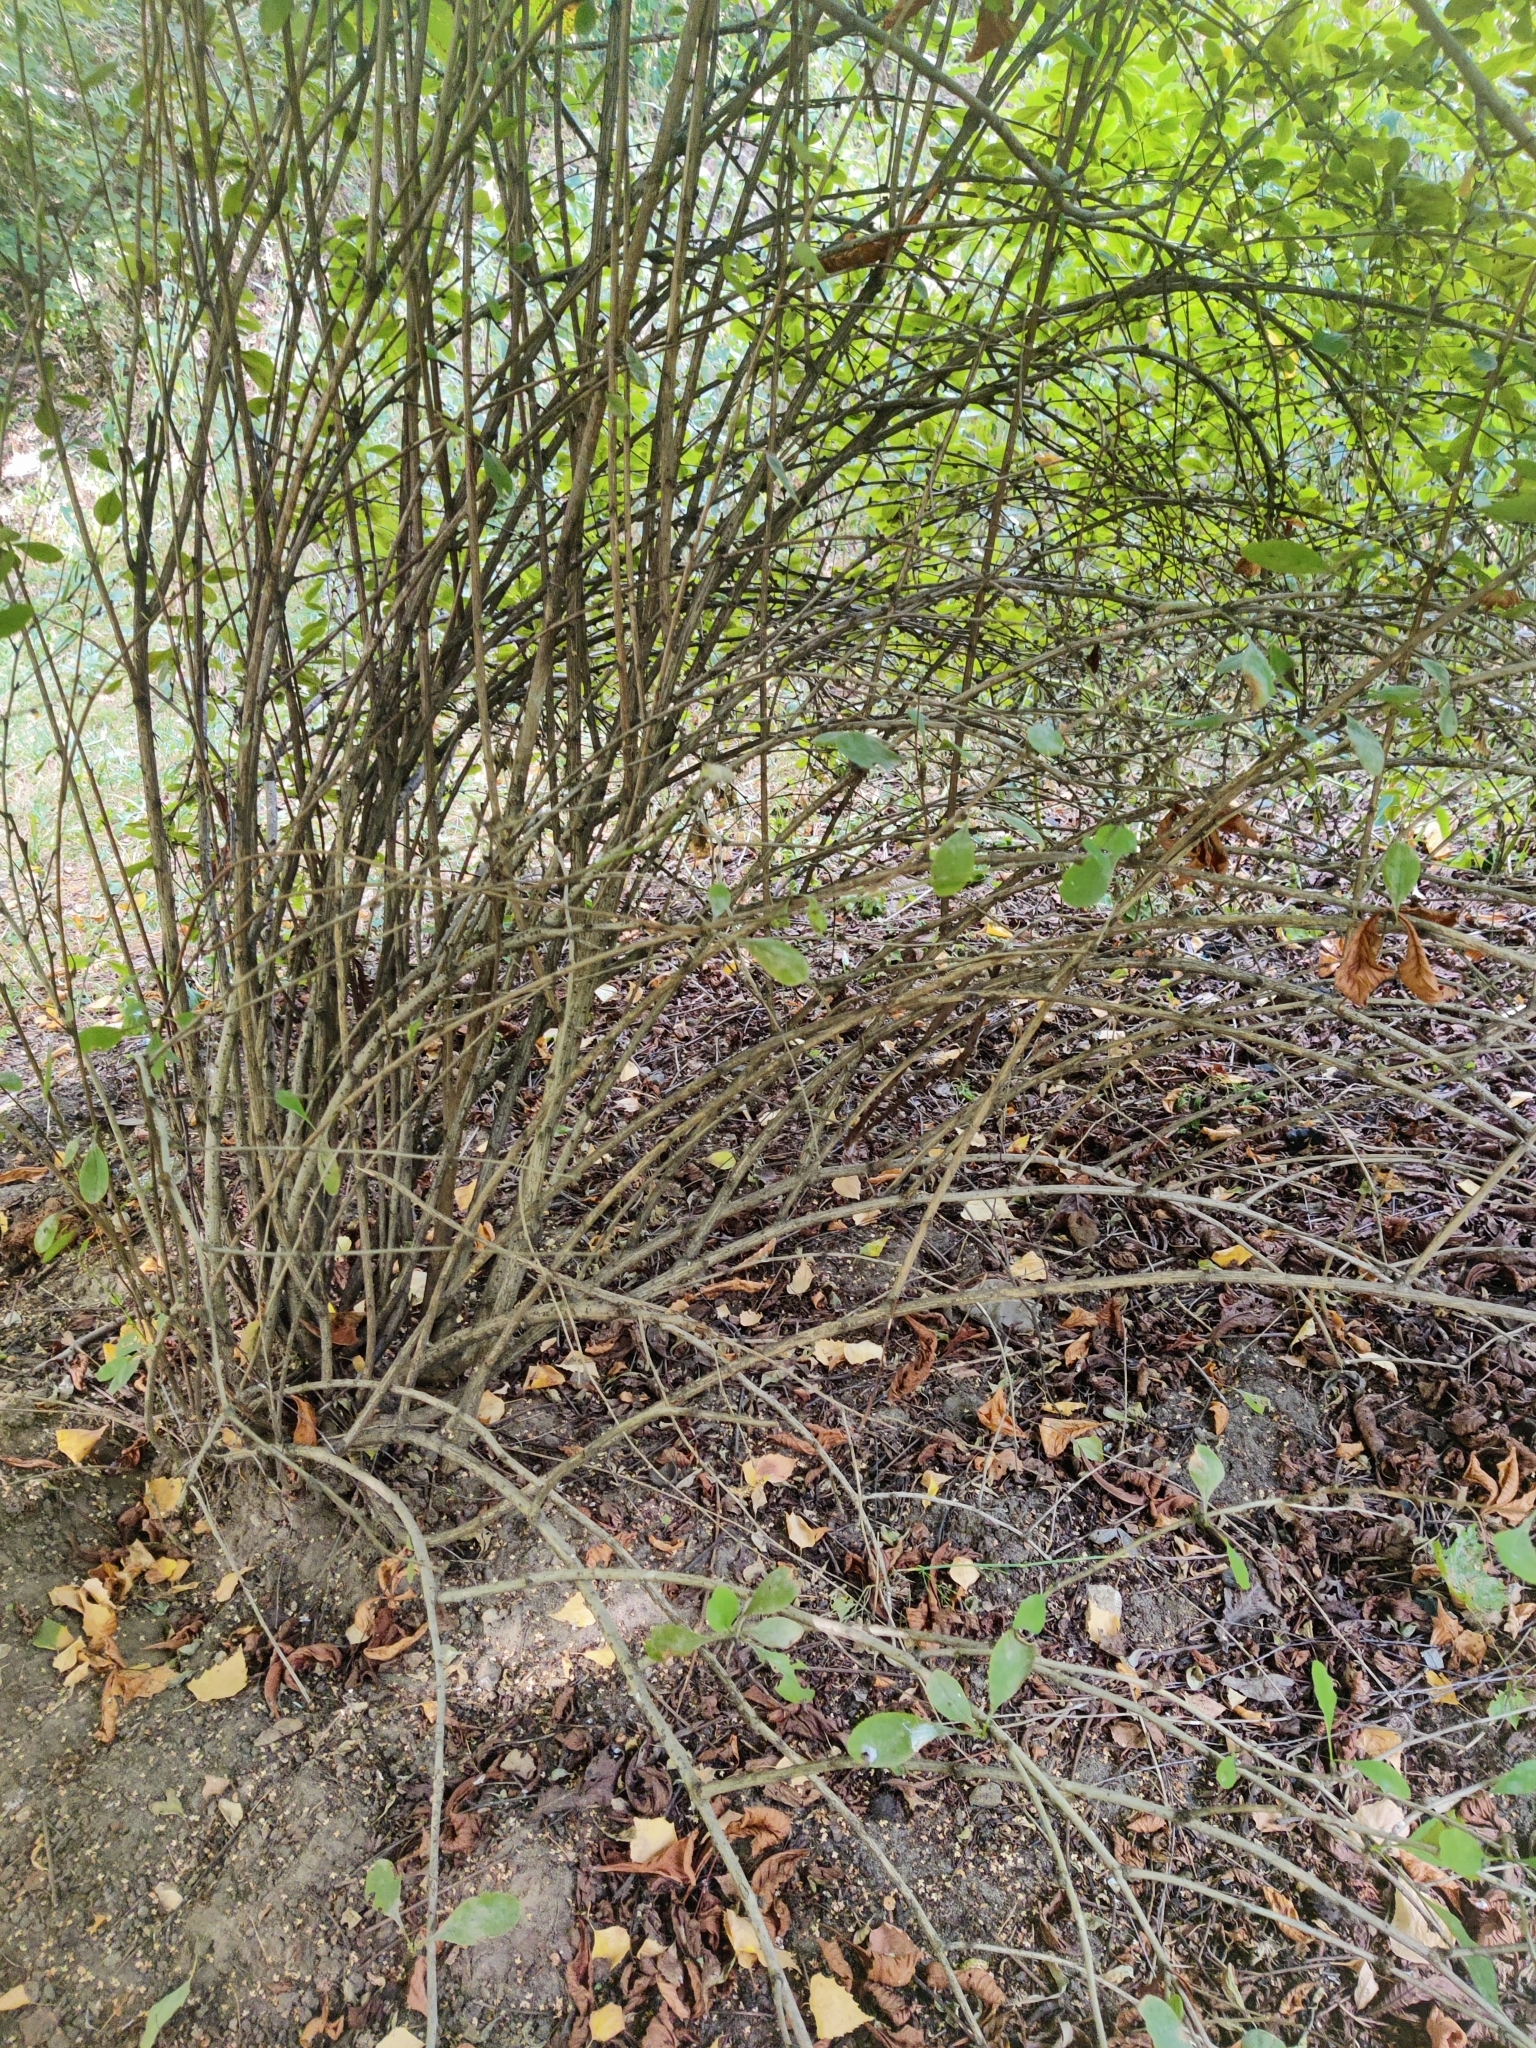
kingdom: Plantae
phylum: Tracheophyta
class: Magnoliopsida
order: Ranunculales
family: Berberidaceae
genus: Berberis
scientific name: Berberis vulgaris
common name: Barberry
